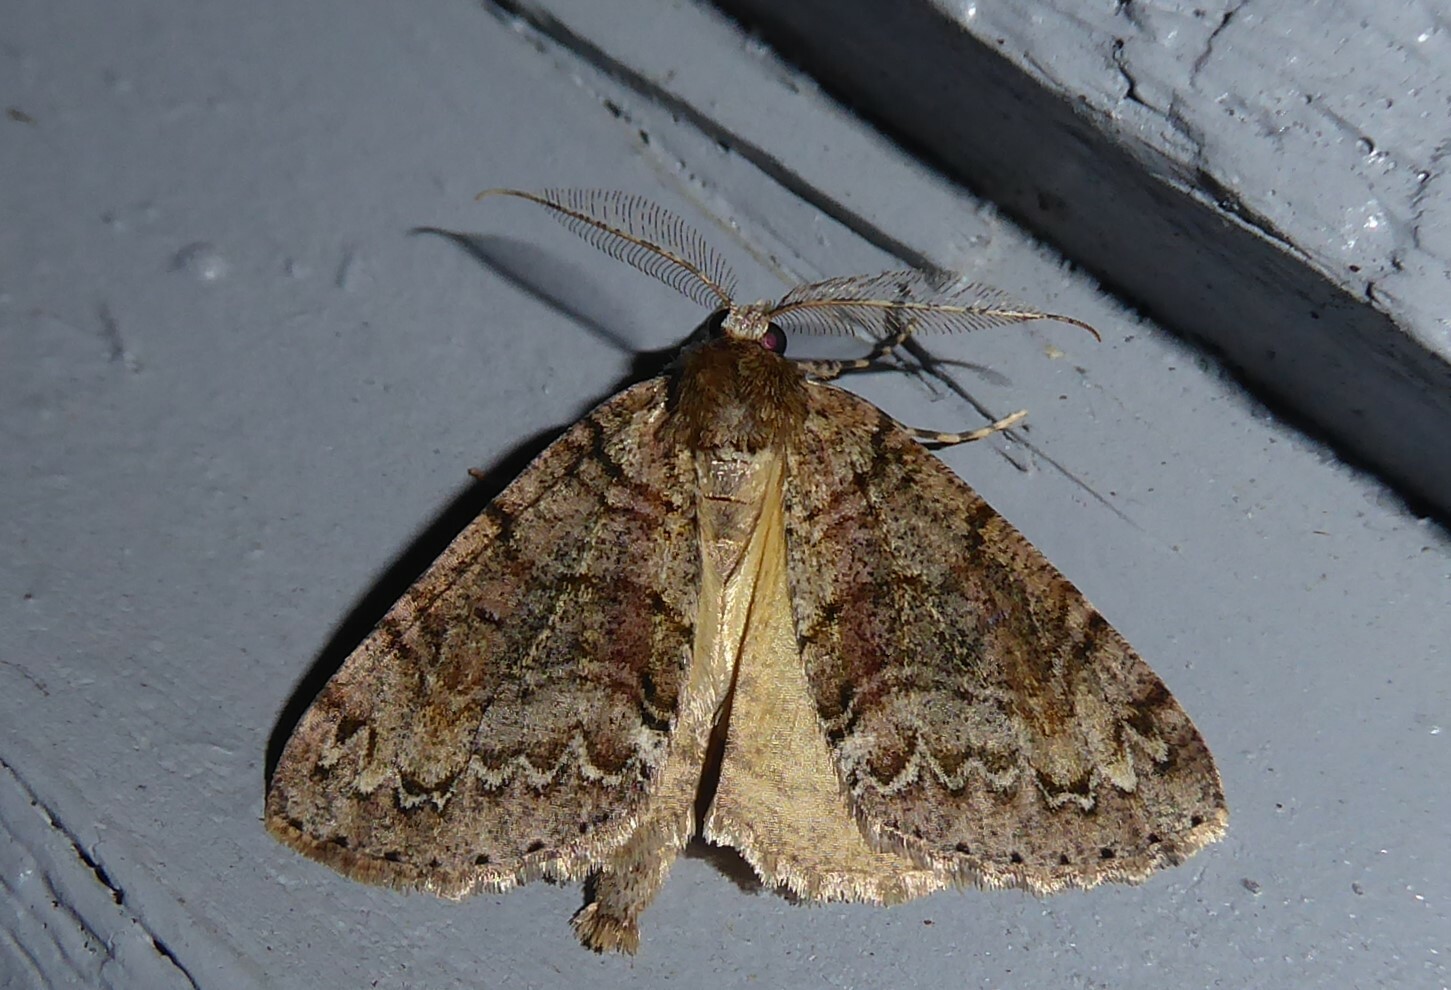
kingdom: Animalia
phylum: Arthropoda
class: Insecta
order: Lepidoptera
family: Geometridae
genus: Pseudocoremia
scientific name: Pseudocoremia suavis
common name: Common forest looper
